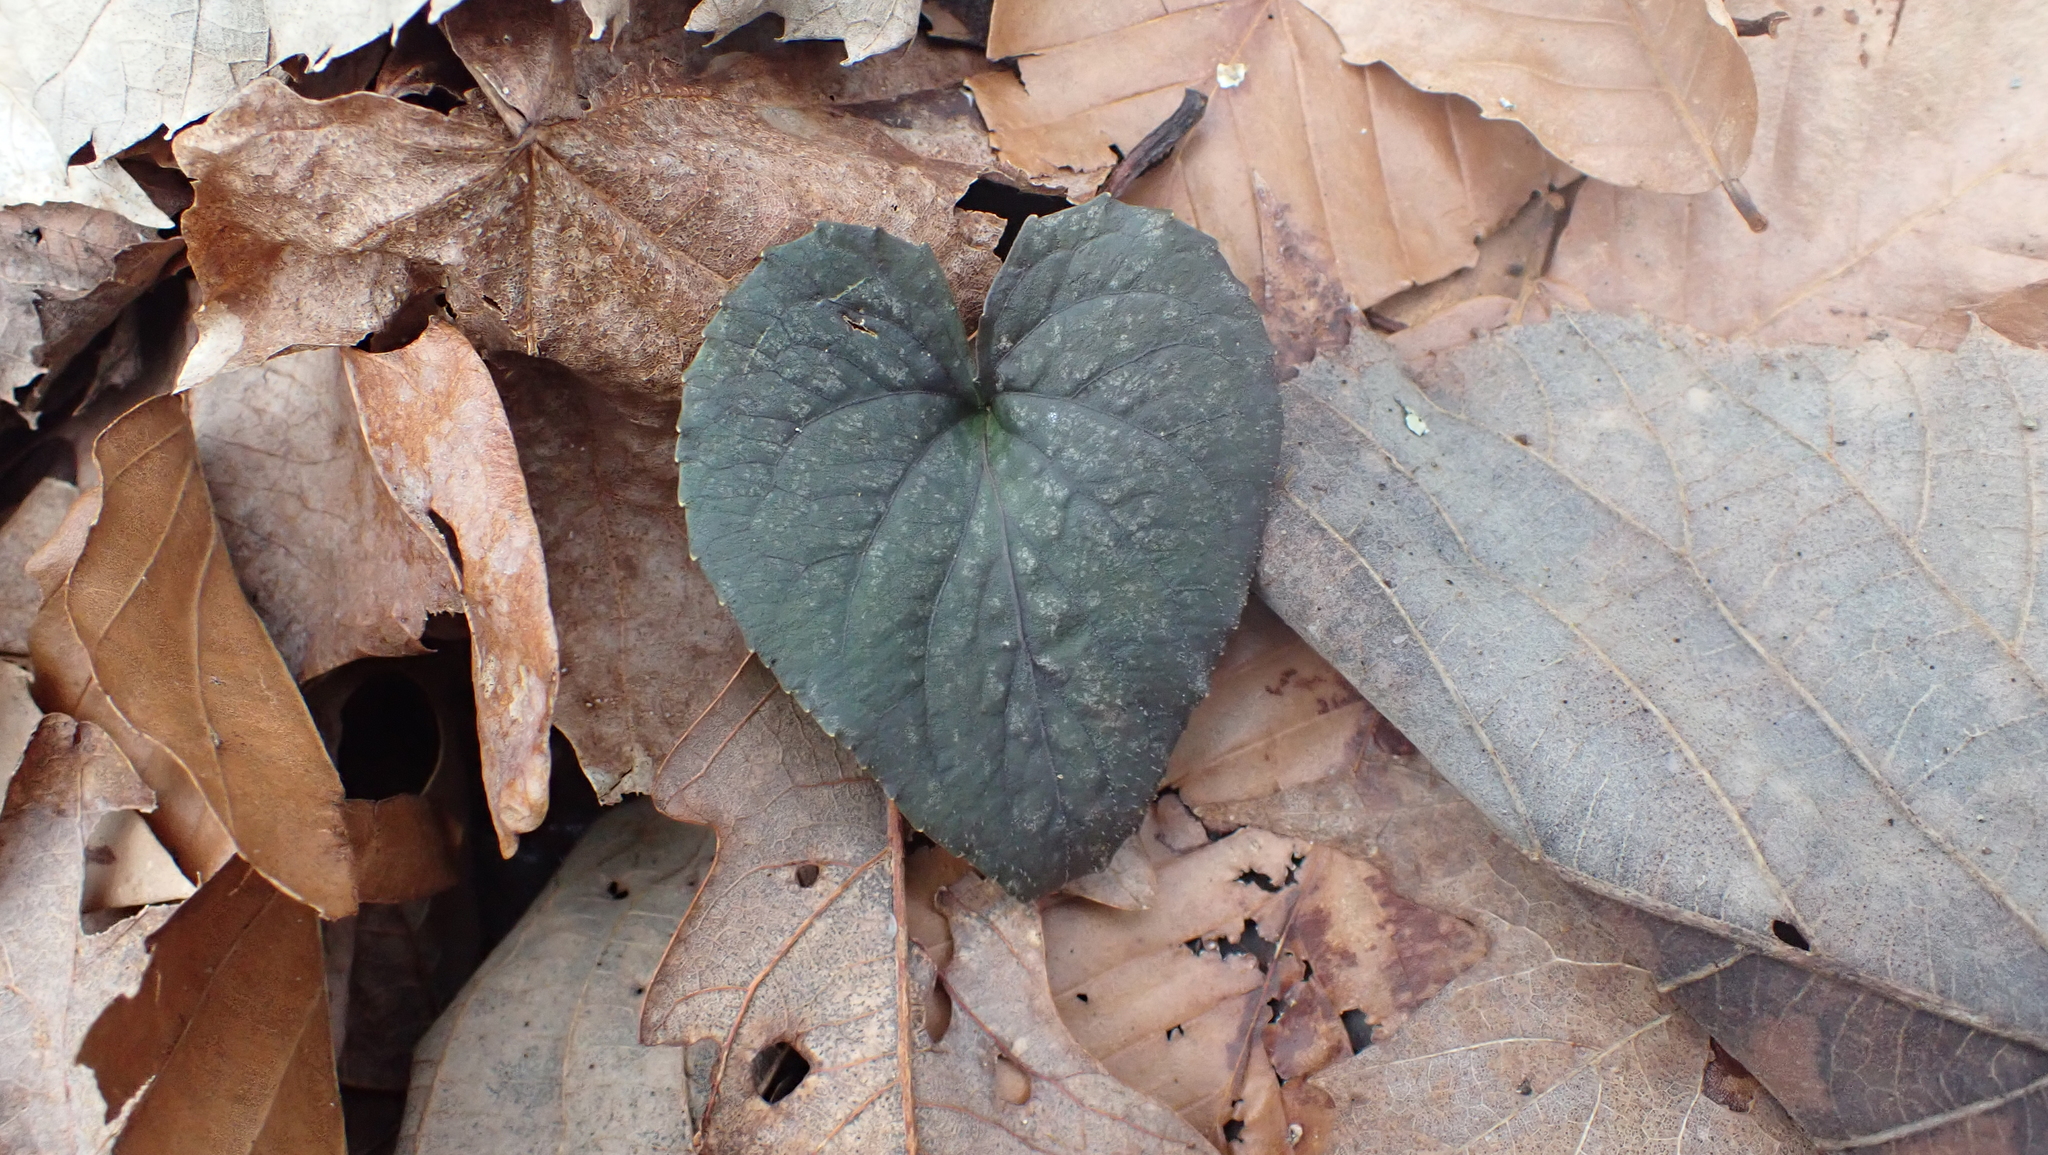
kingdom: Plantae
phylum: Tracheophyta
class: Magnoliopsida
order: Malpighiales
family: Violaceae
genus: Viola
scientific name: Viola hirsutula
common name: Southern wood violet
